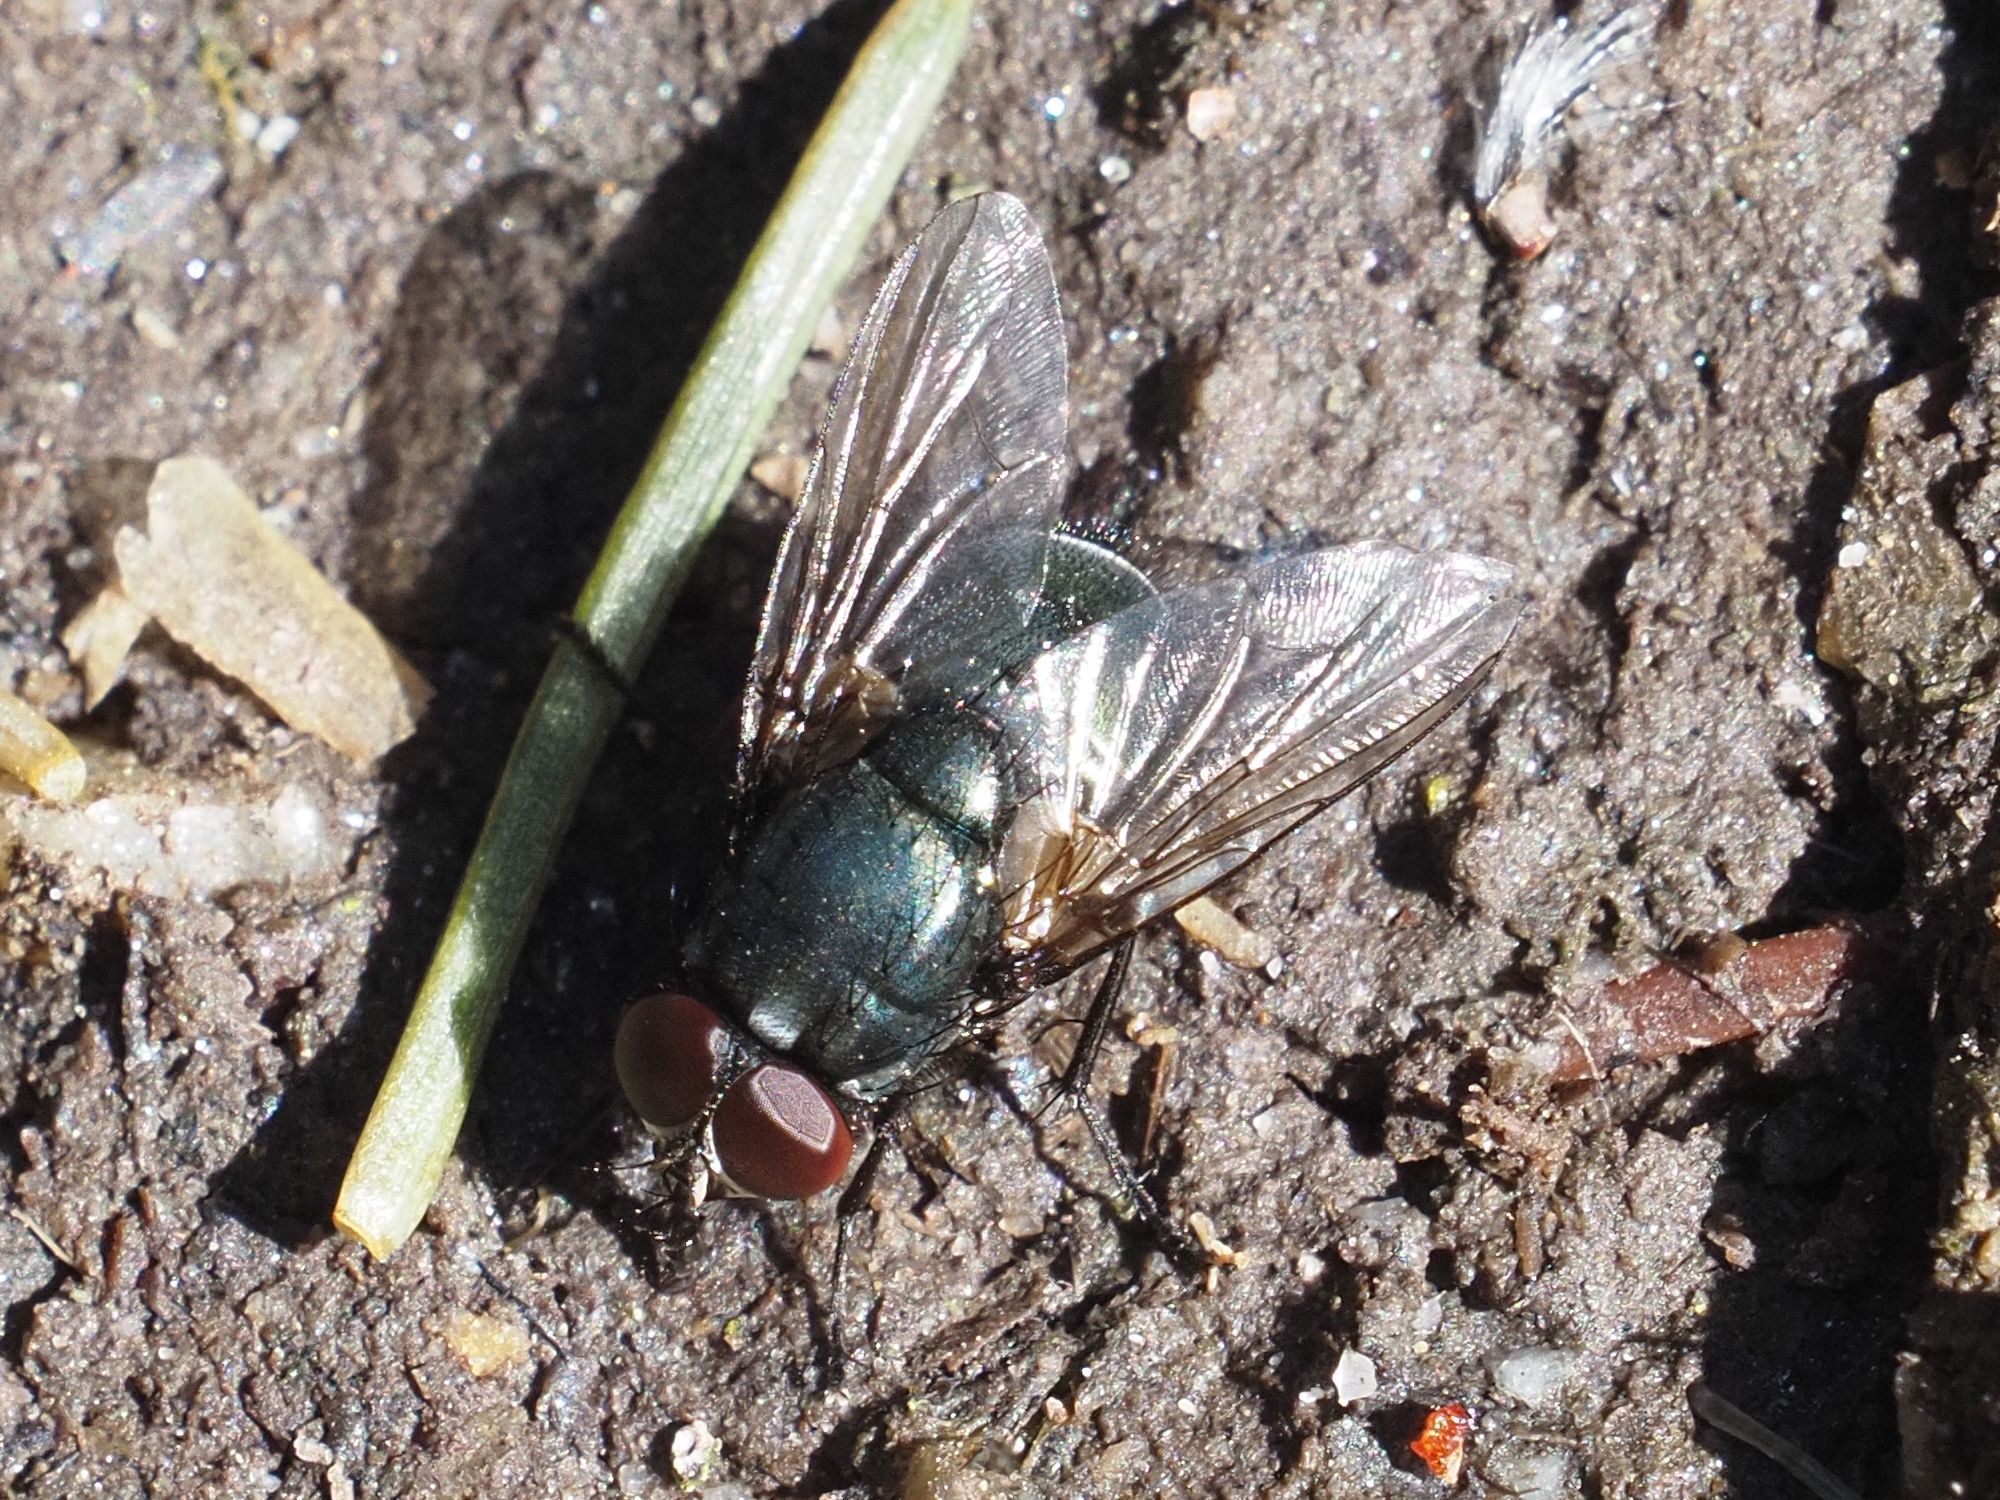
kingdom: Animalia
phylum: Arthropoda
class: Insecta
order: Diptera
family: Muscidae
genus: Eudasyphora
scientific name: Eudasyphora cyanicolor
